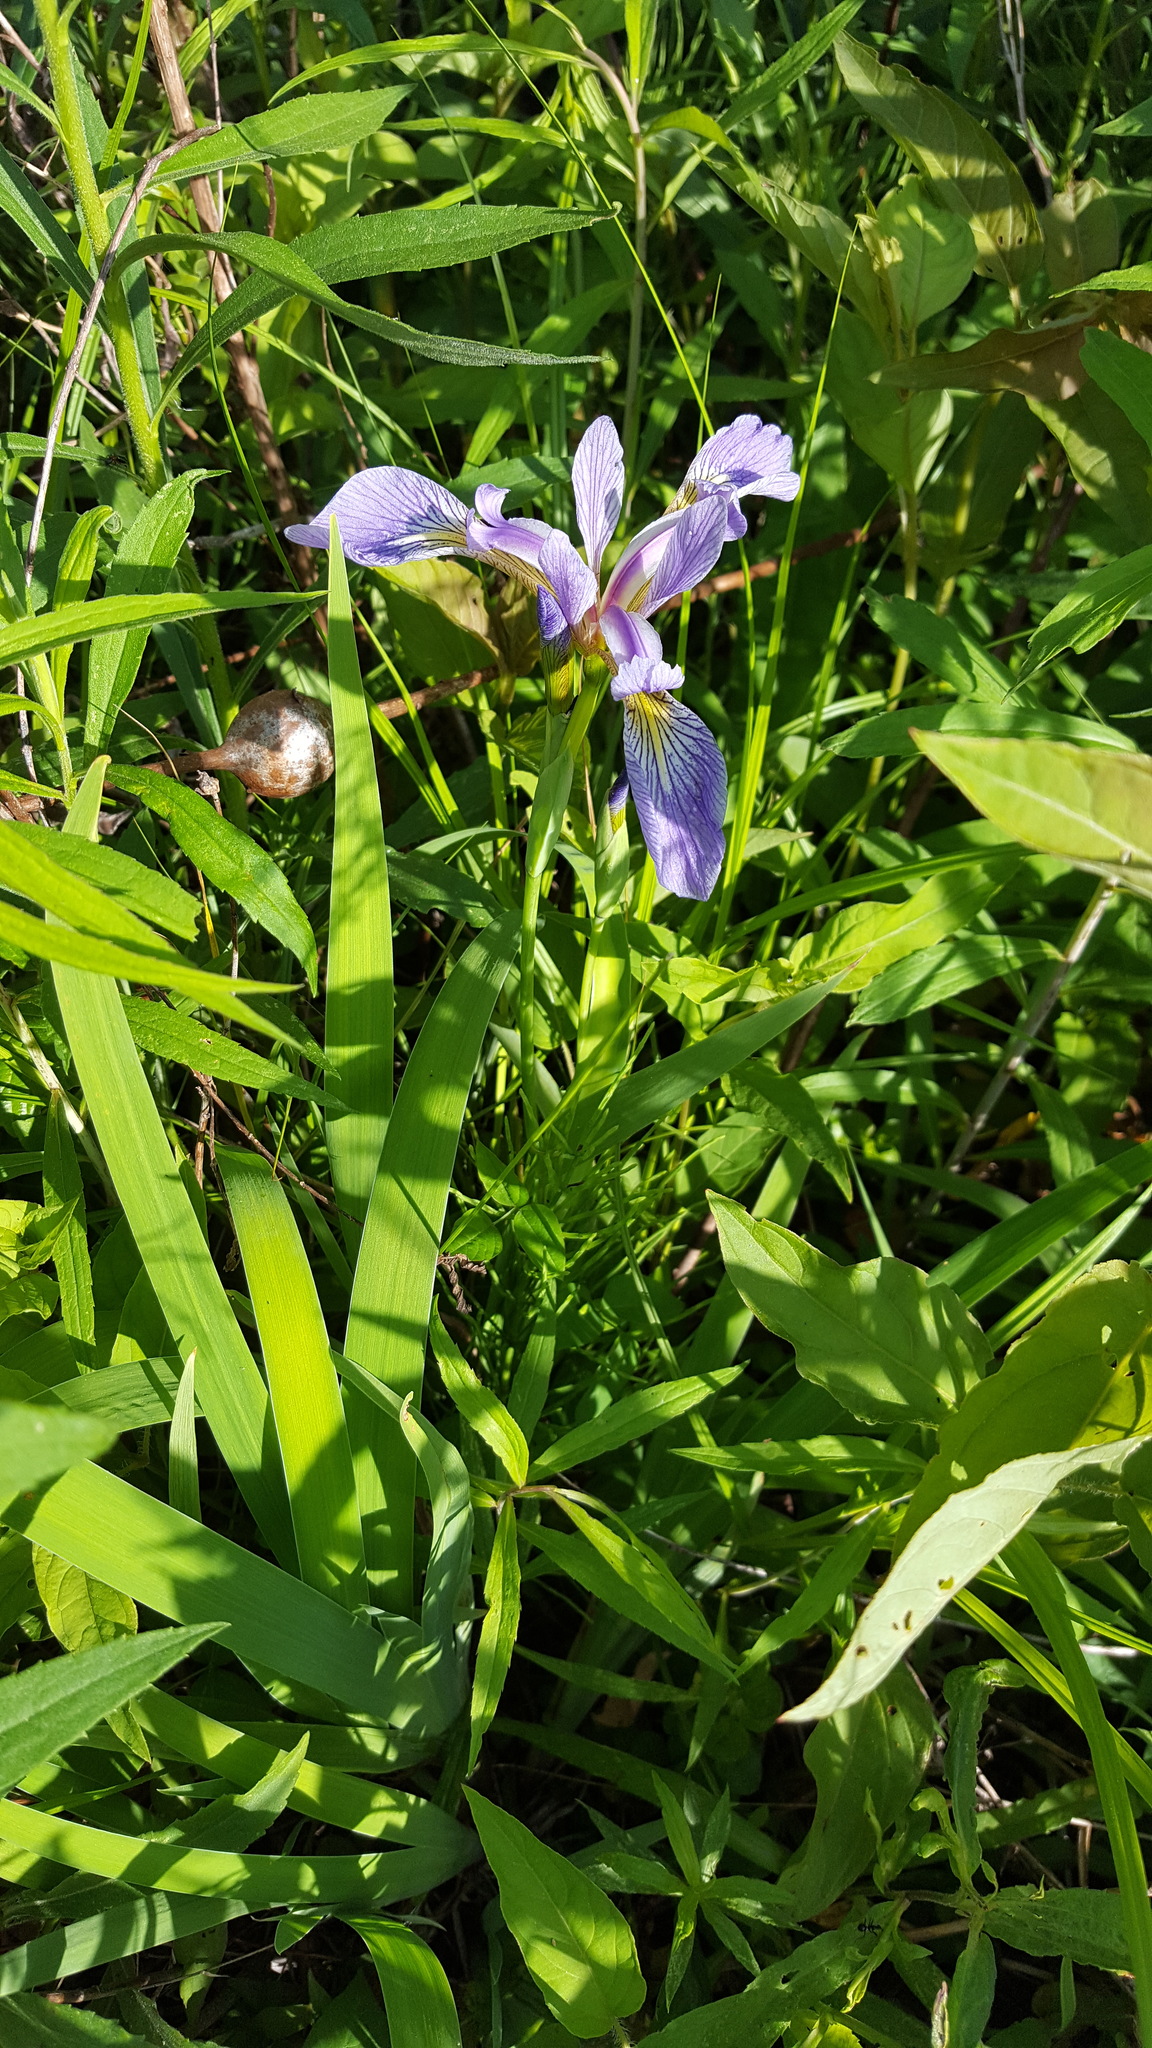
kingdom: Plantae
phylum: Tracheophyta
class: Liliopsida
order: Asparagales
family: Iridaceae
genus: Iris
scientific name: Iris versicolor
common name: Purple iris
